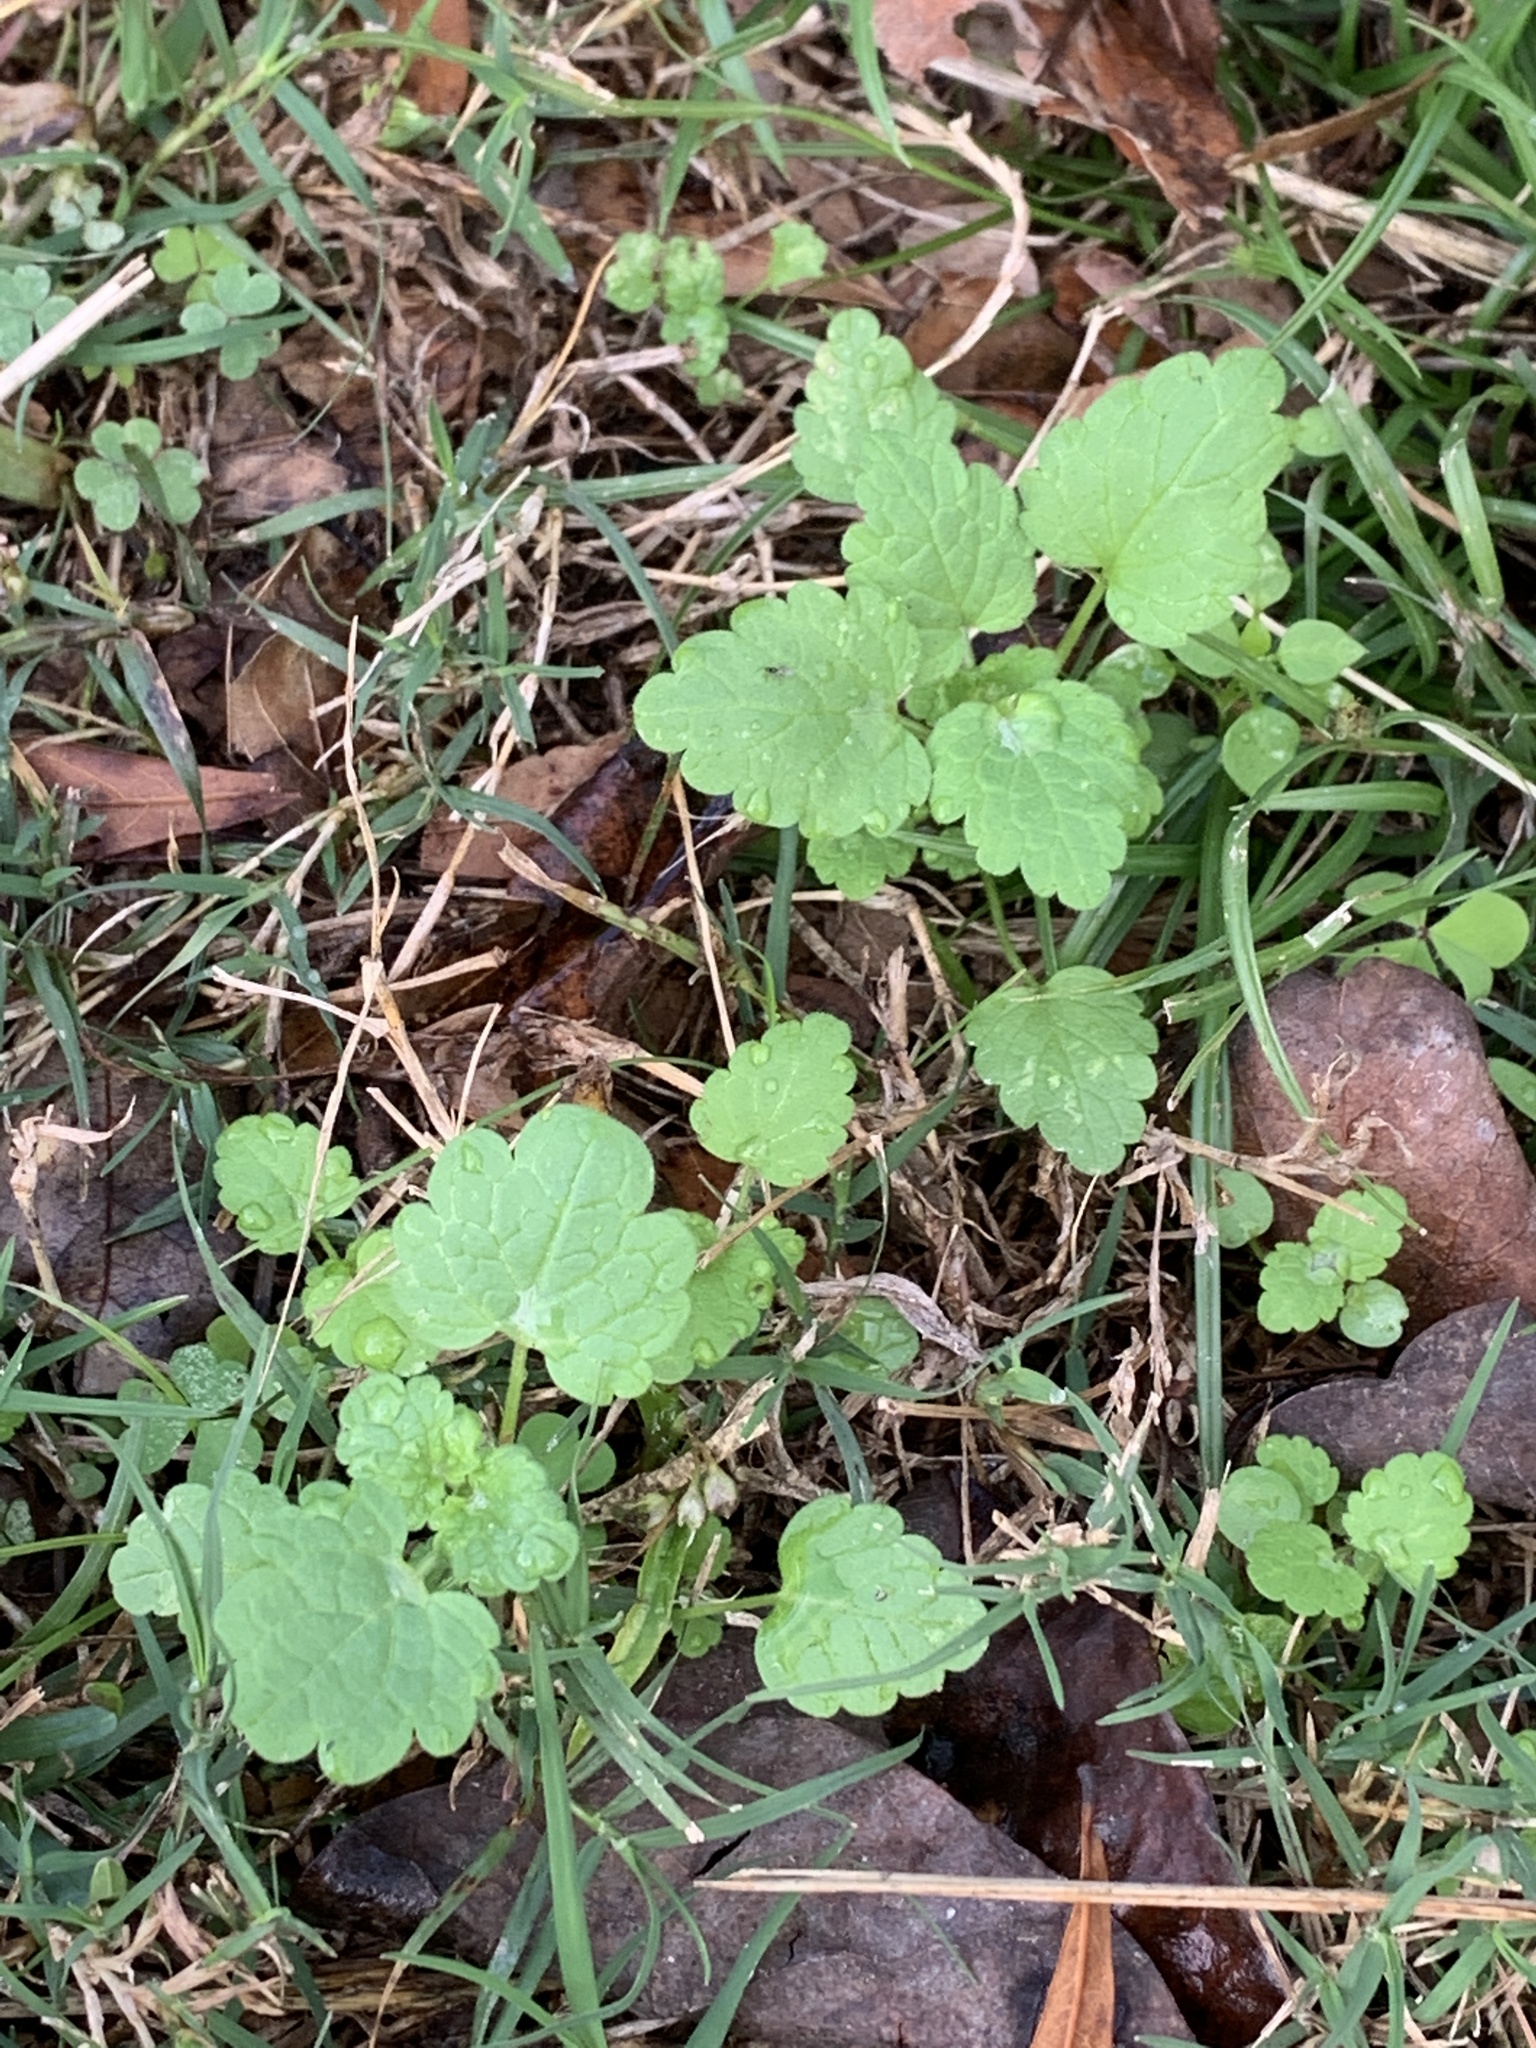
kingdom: Plantae
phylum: Tracheophyta
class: Magnoliopsida
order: Lamiales
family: Lamiaceae
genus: Lamium
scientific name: Lamium amplexicaule
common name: Henbit dead-nettle
